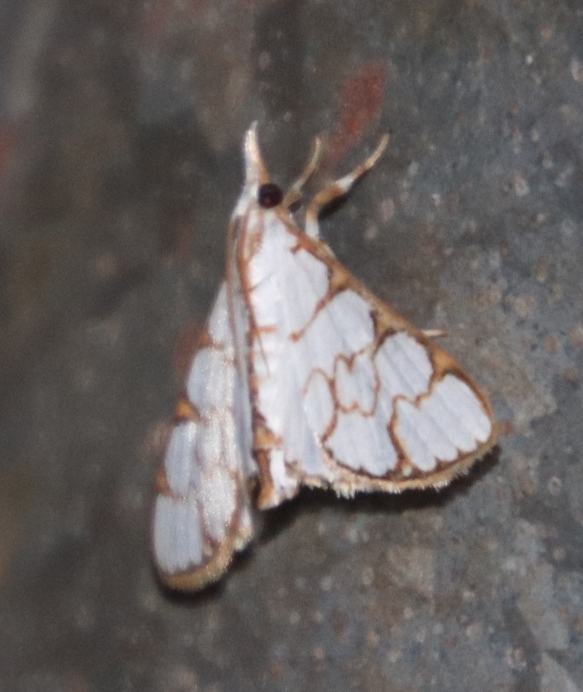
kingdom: Animalia
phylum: Arthropoda
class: Insecta
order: Lepidoptera
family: Crambidae
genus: Cirrhochrista
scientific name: Cirrhochrista grabczewskyi
